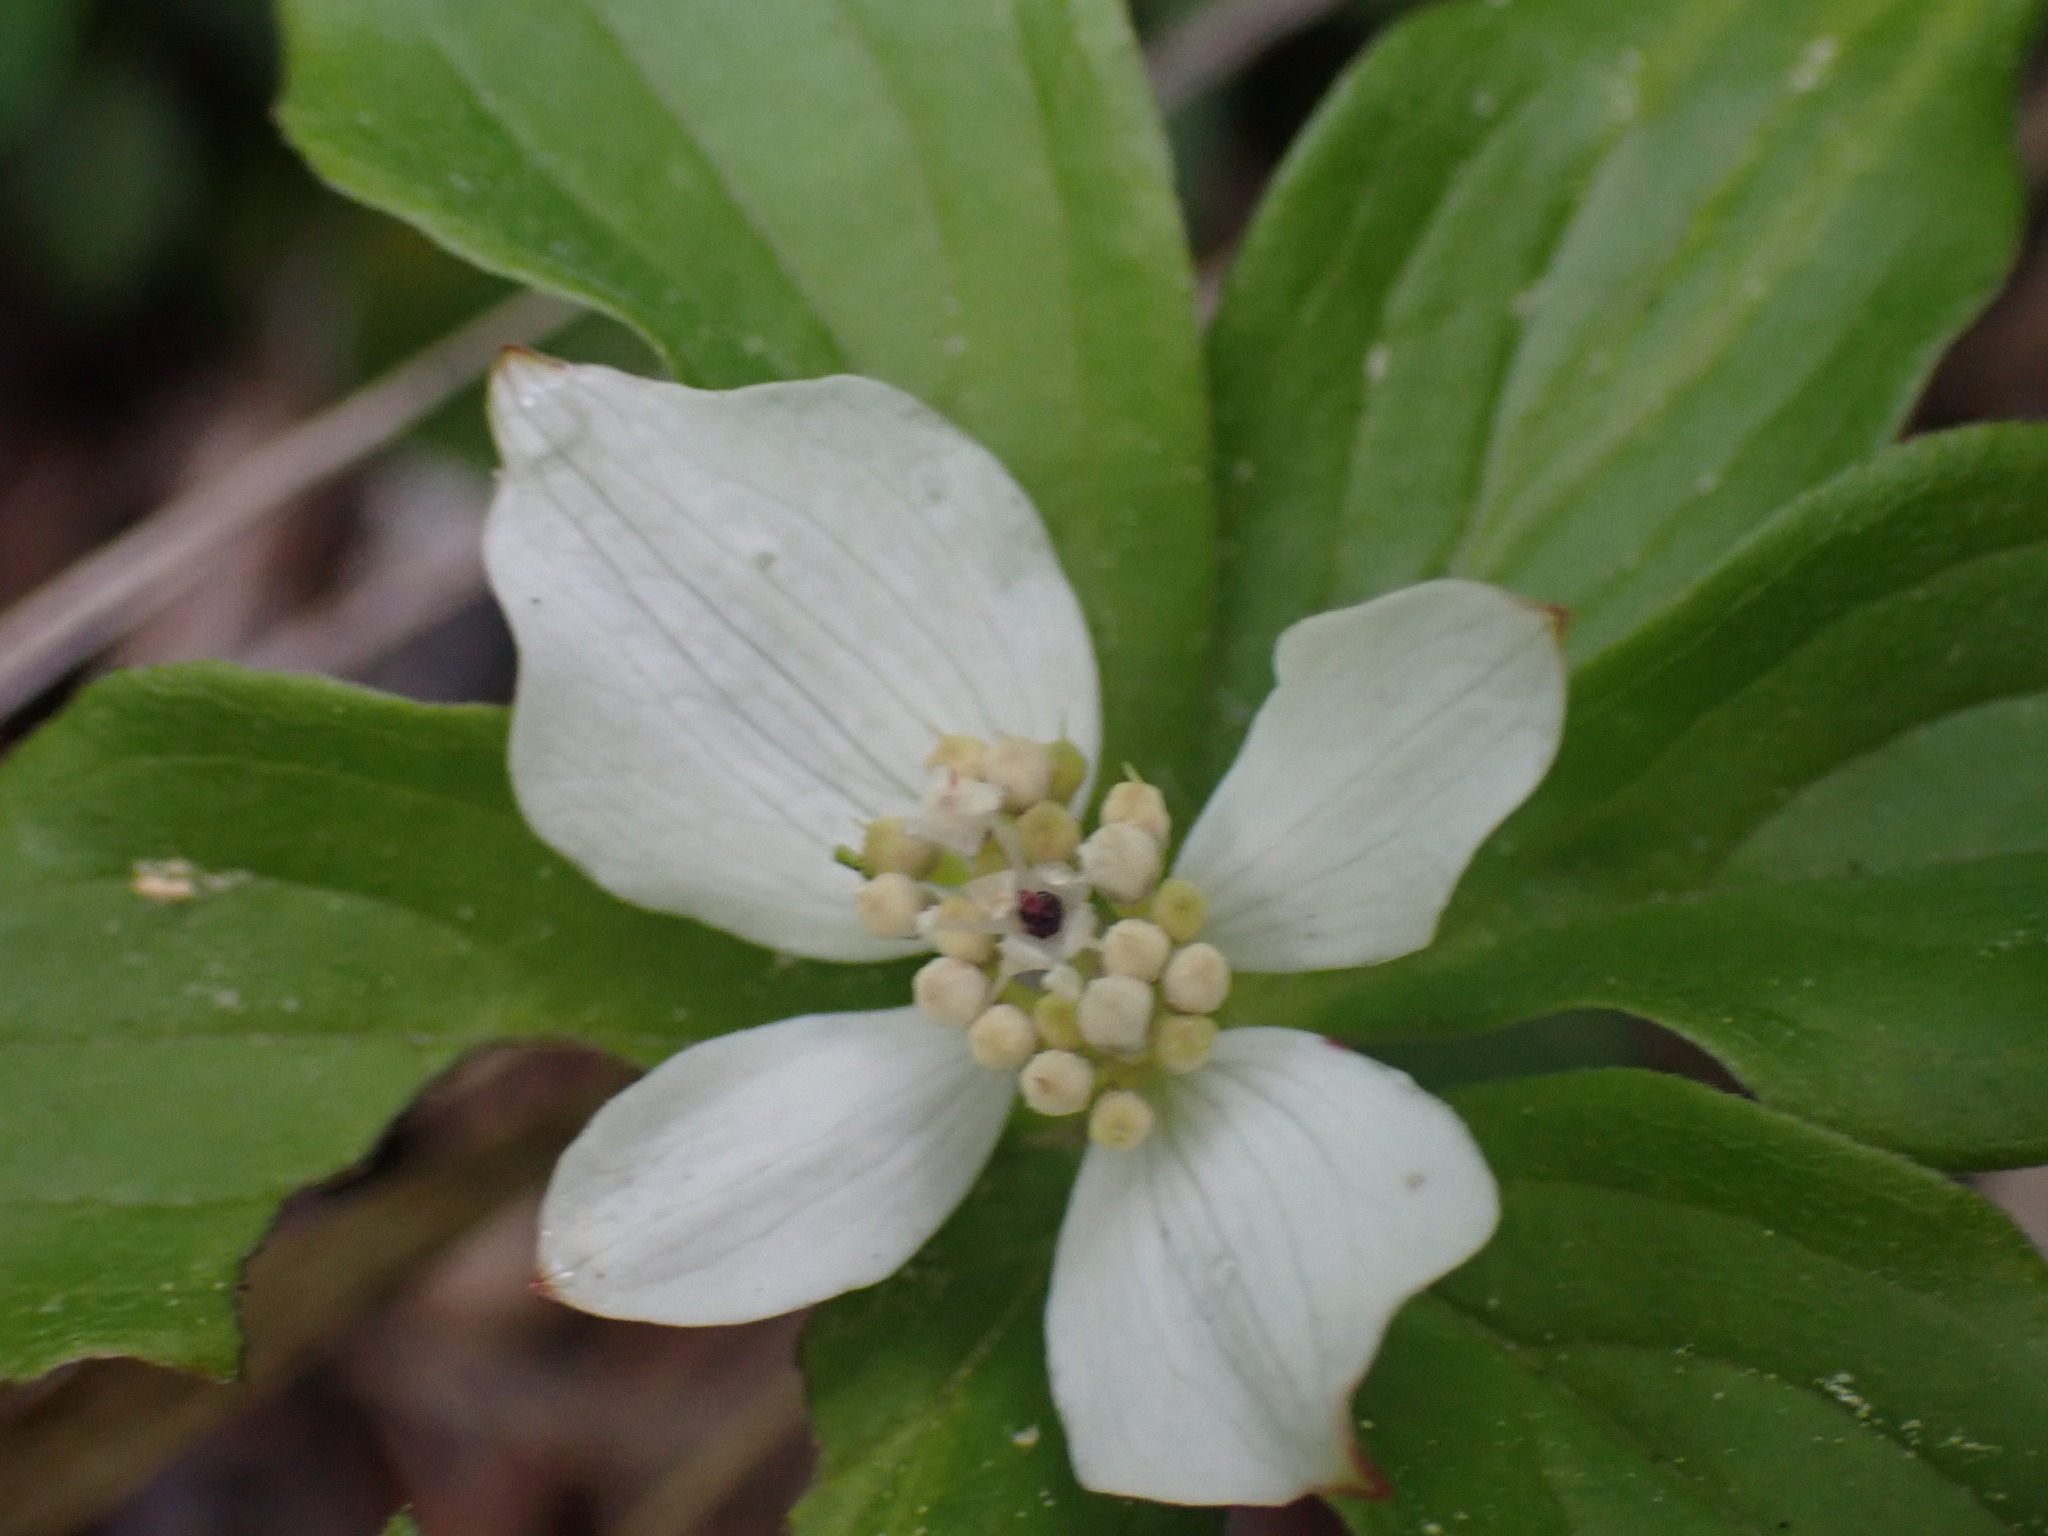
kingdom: Plantae
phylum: Tracheophyta
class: Magnoliopsida
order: Cornales
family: Cornaceae
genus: Cornus
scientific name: Cornus canadensis
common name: Creeping dogwood
